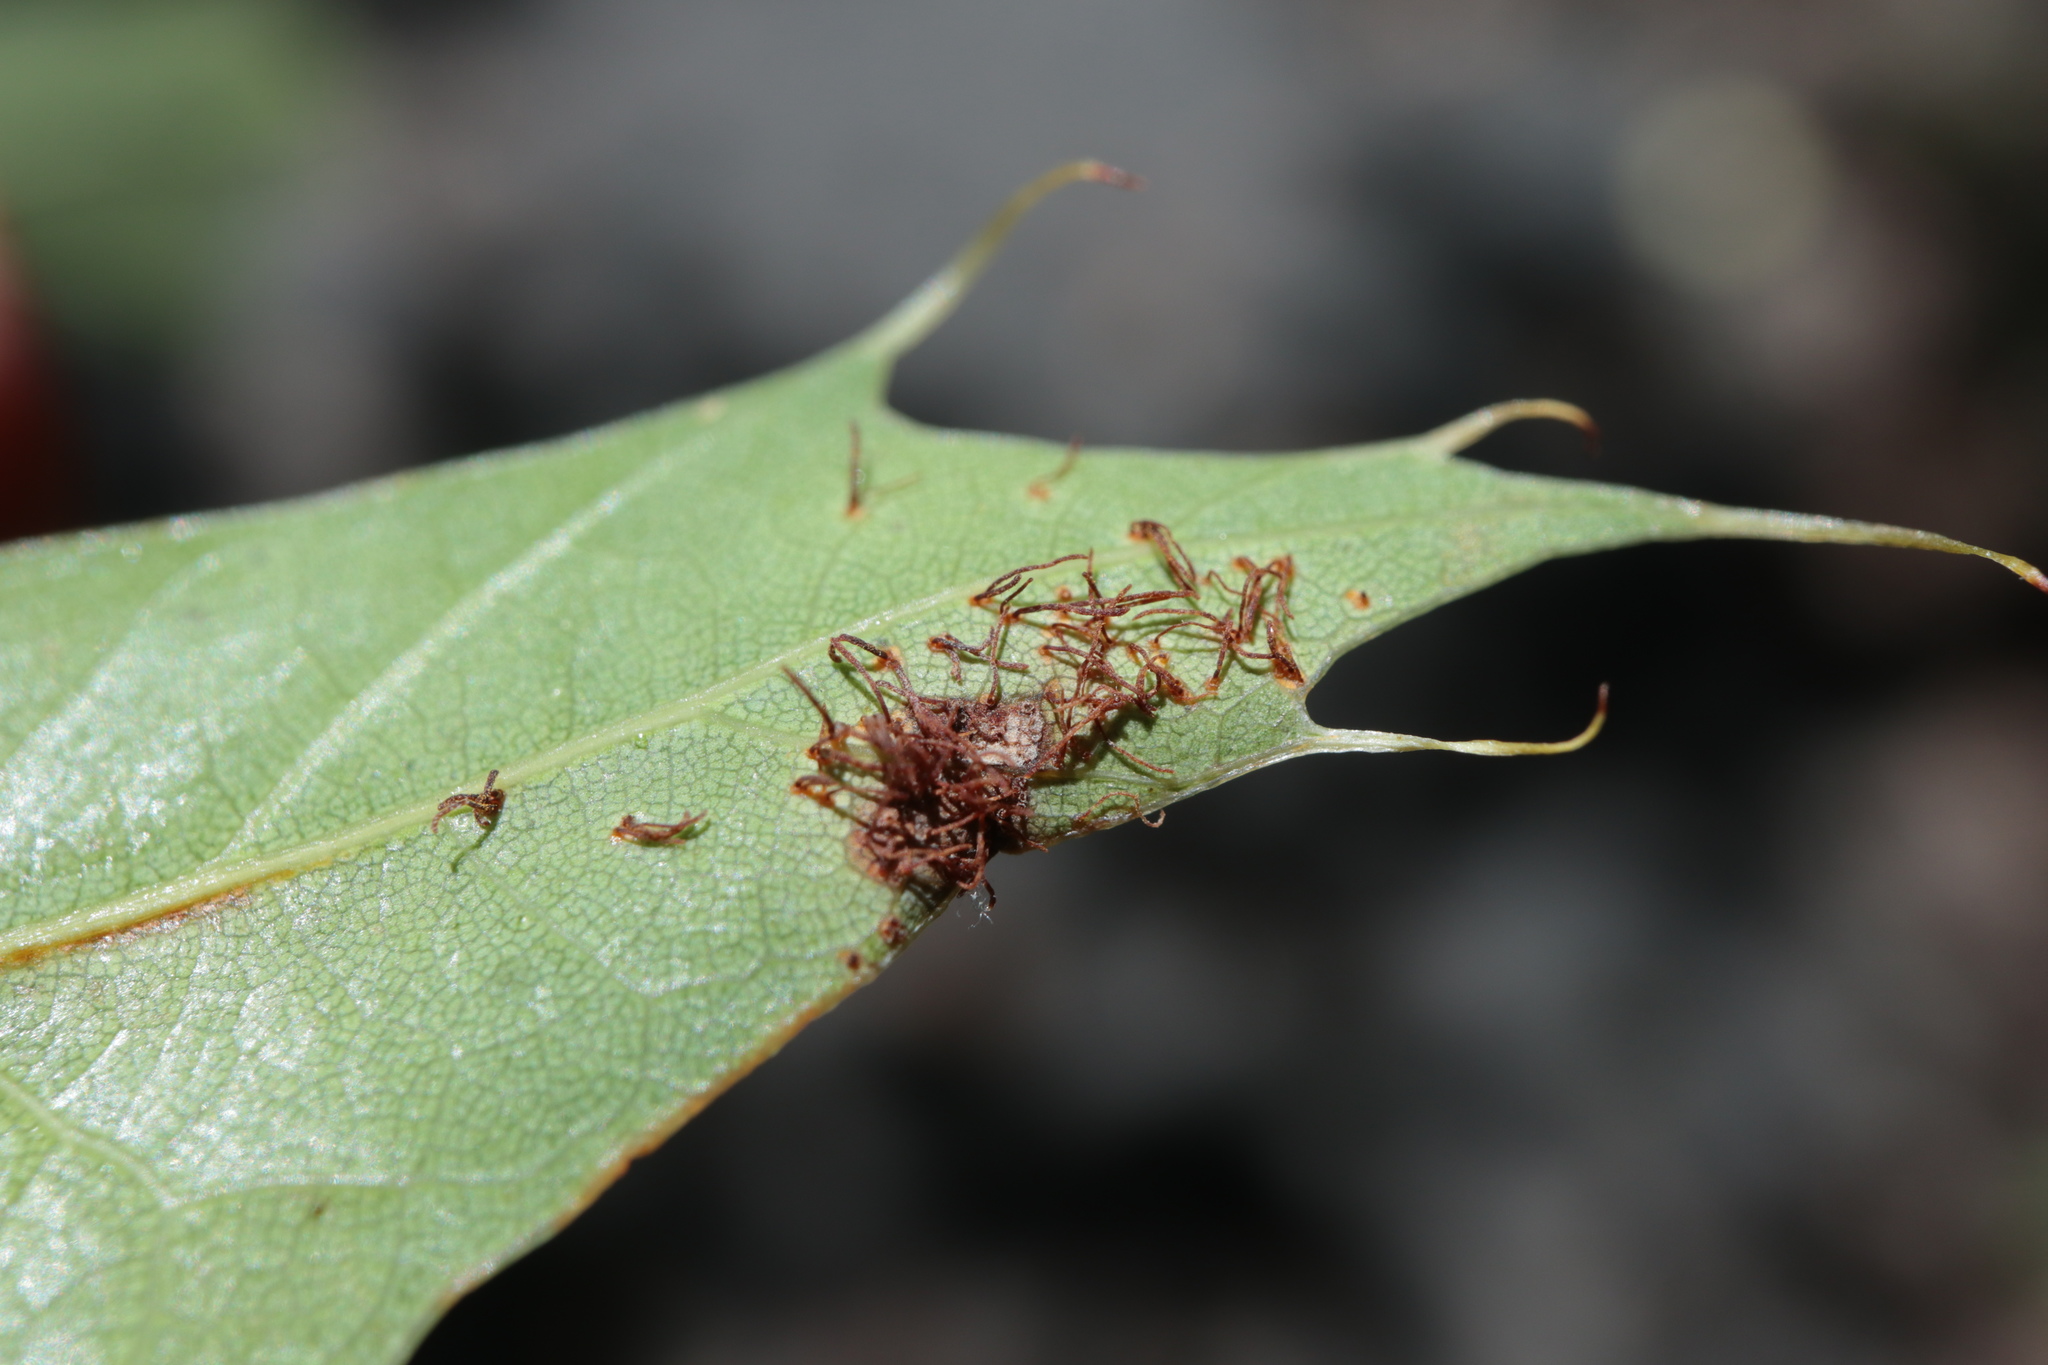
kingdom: Fungi
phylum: Basidiomycota
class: Pucciniomycetes
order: Pucciniales
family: Cronartiaceae
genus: Cronartium
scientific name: Cronartium quercuum
